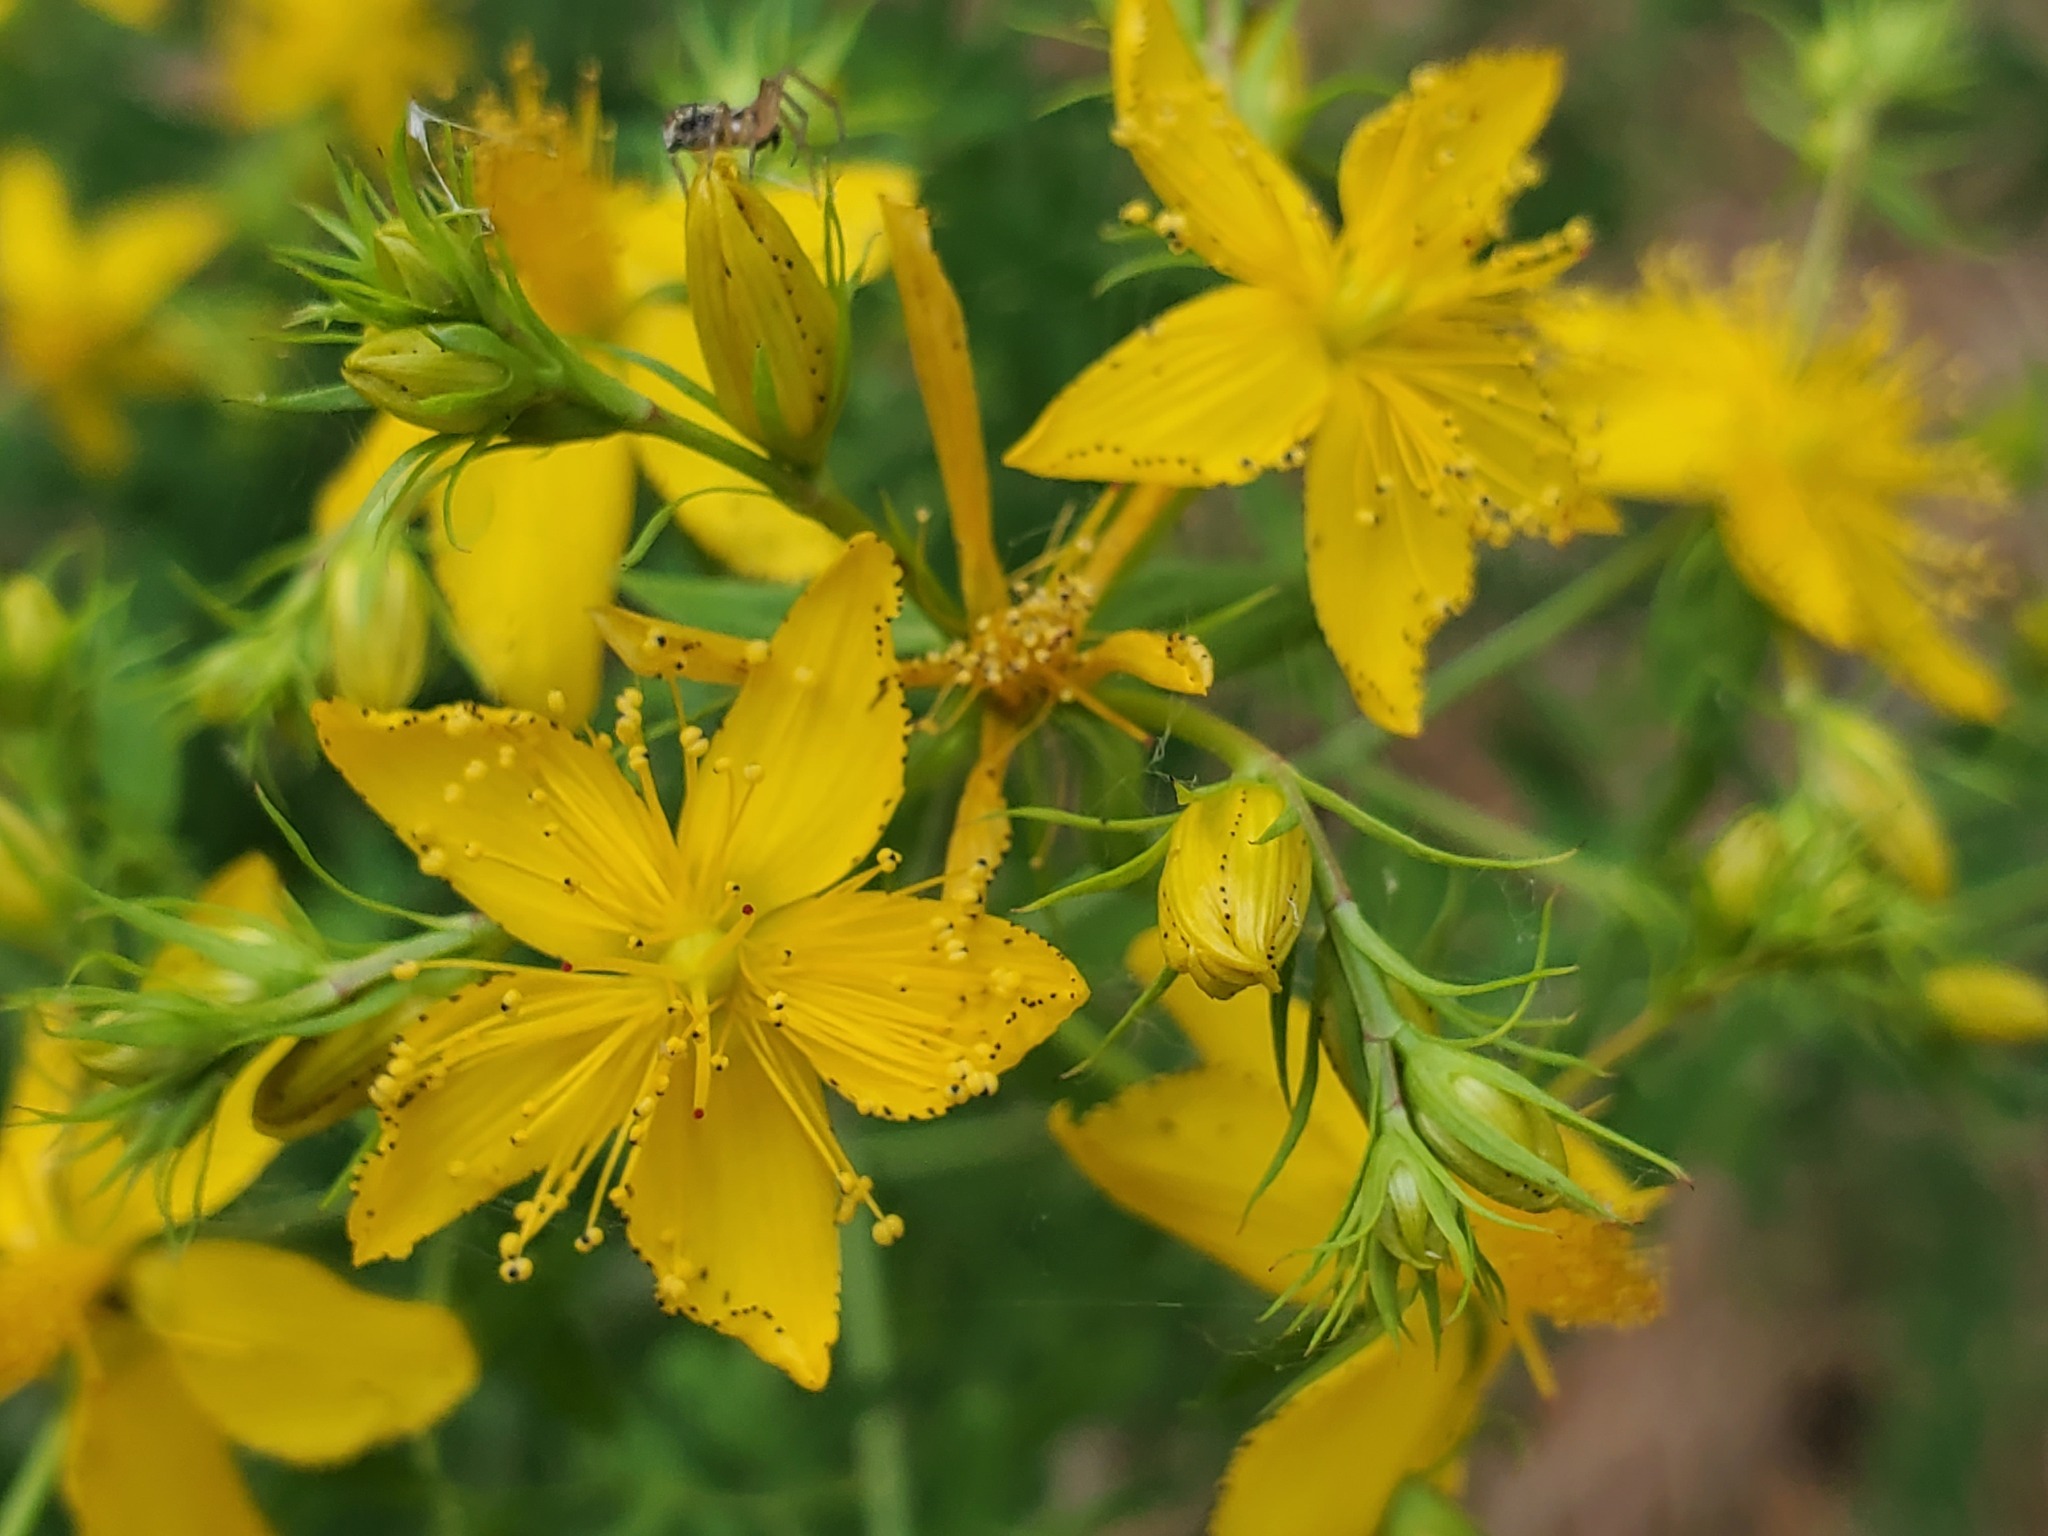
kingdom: Plantae
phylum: Tracheophyta
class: Magnoliopsida
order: Malpighiales
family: Hypericaceae
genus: Hypericum
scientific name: Hypericum perforatum
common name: Common st. johnswort
